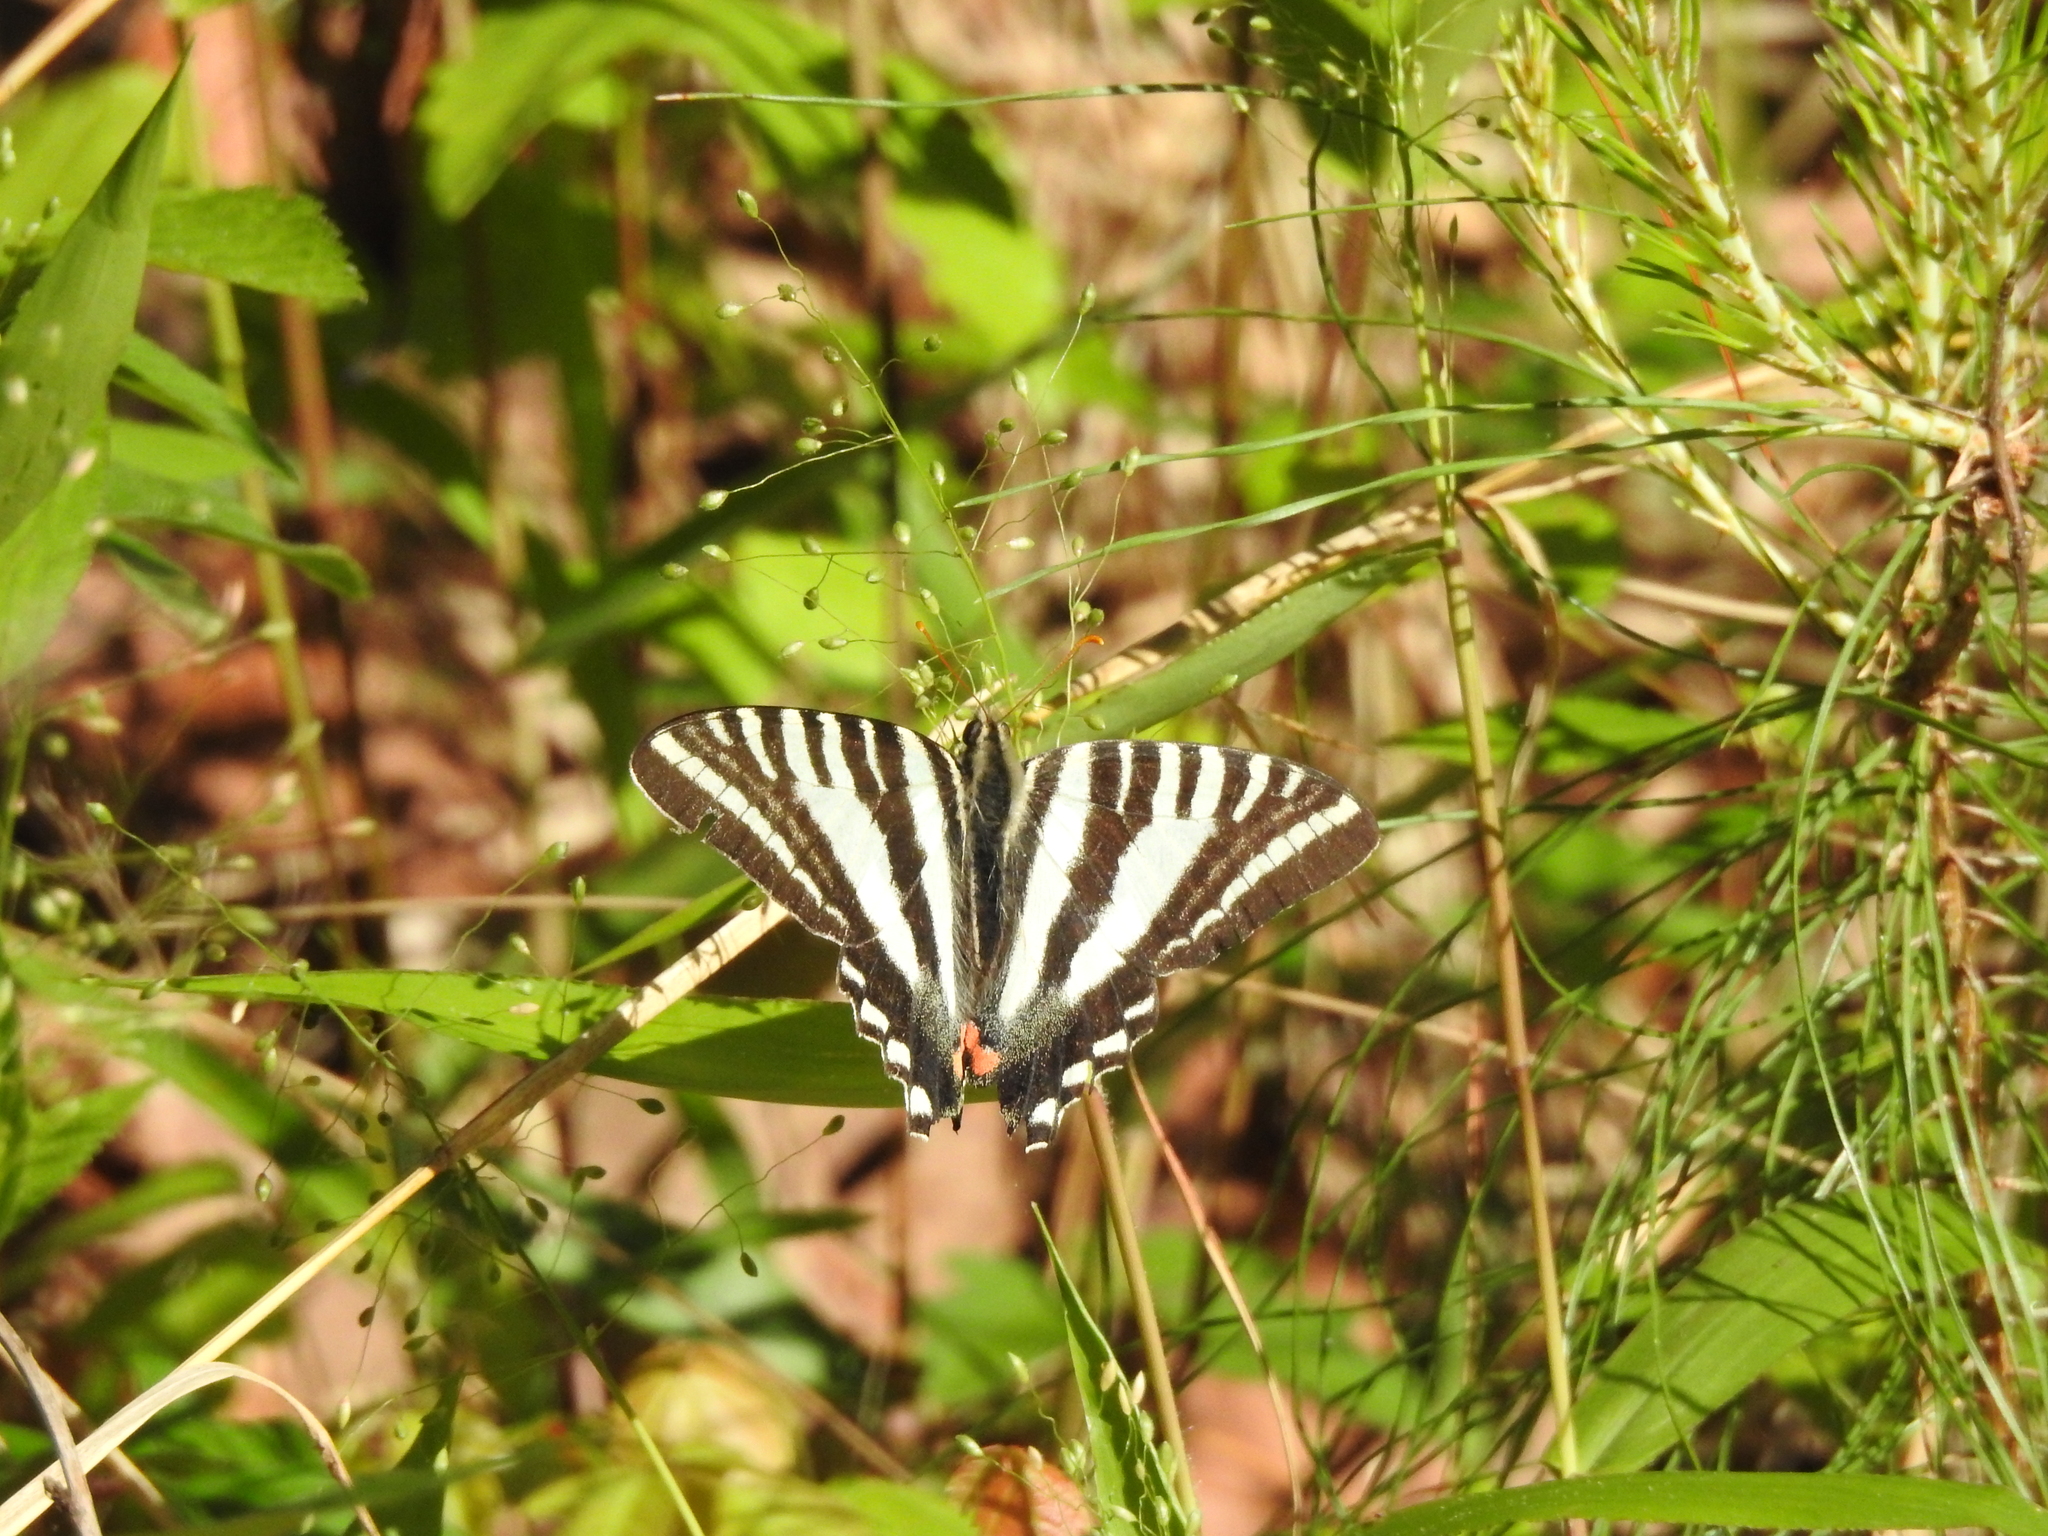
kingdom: Animalia
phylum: Arthropoda
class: Insecta
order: Lepidoptera
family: Papilionidae
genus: Protographium
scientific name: Protographium marcellus
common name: Zebra swallowtail
